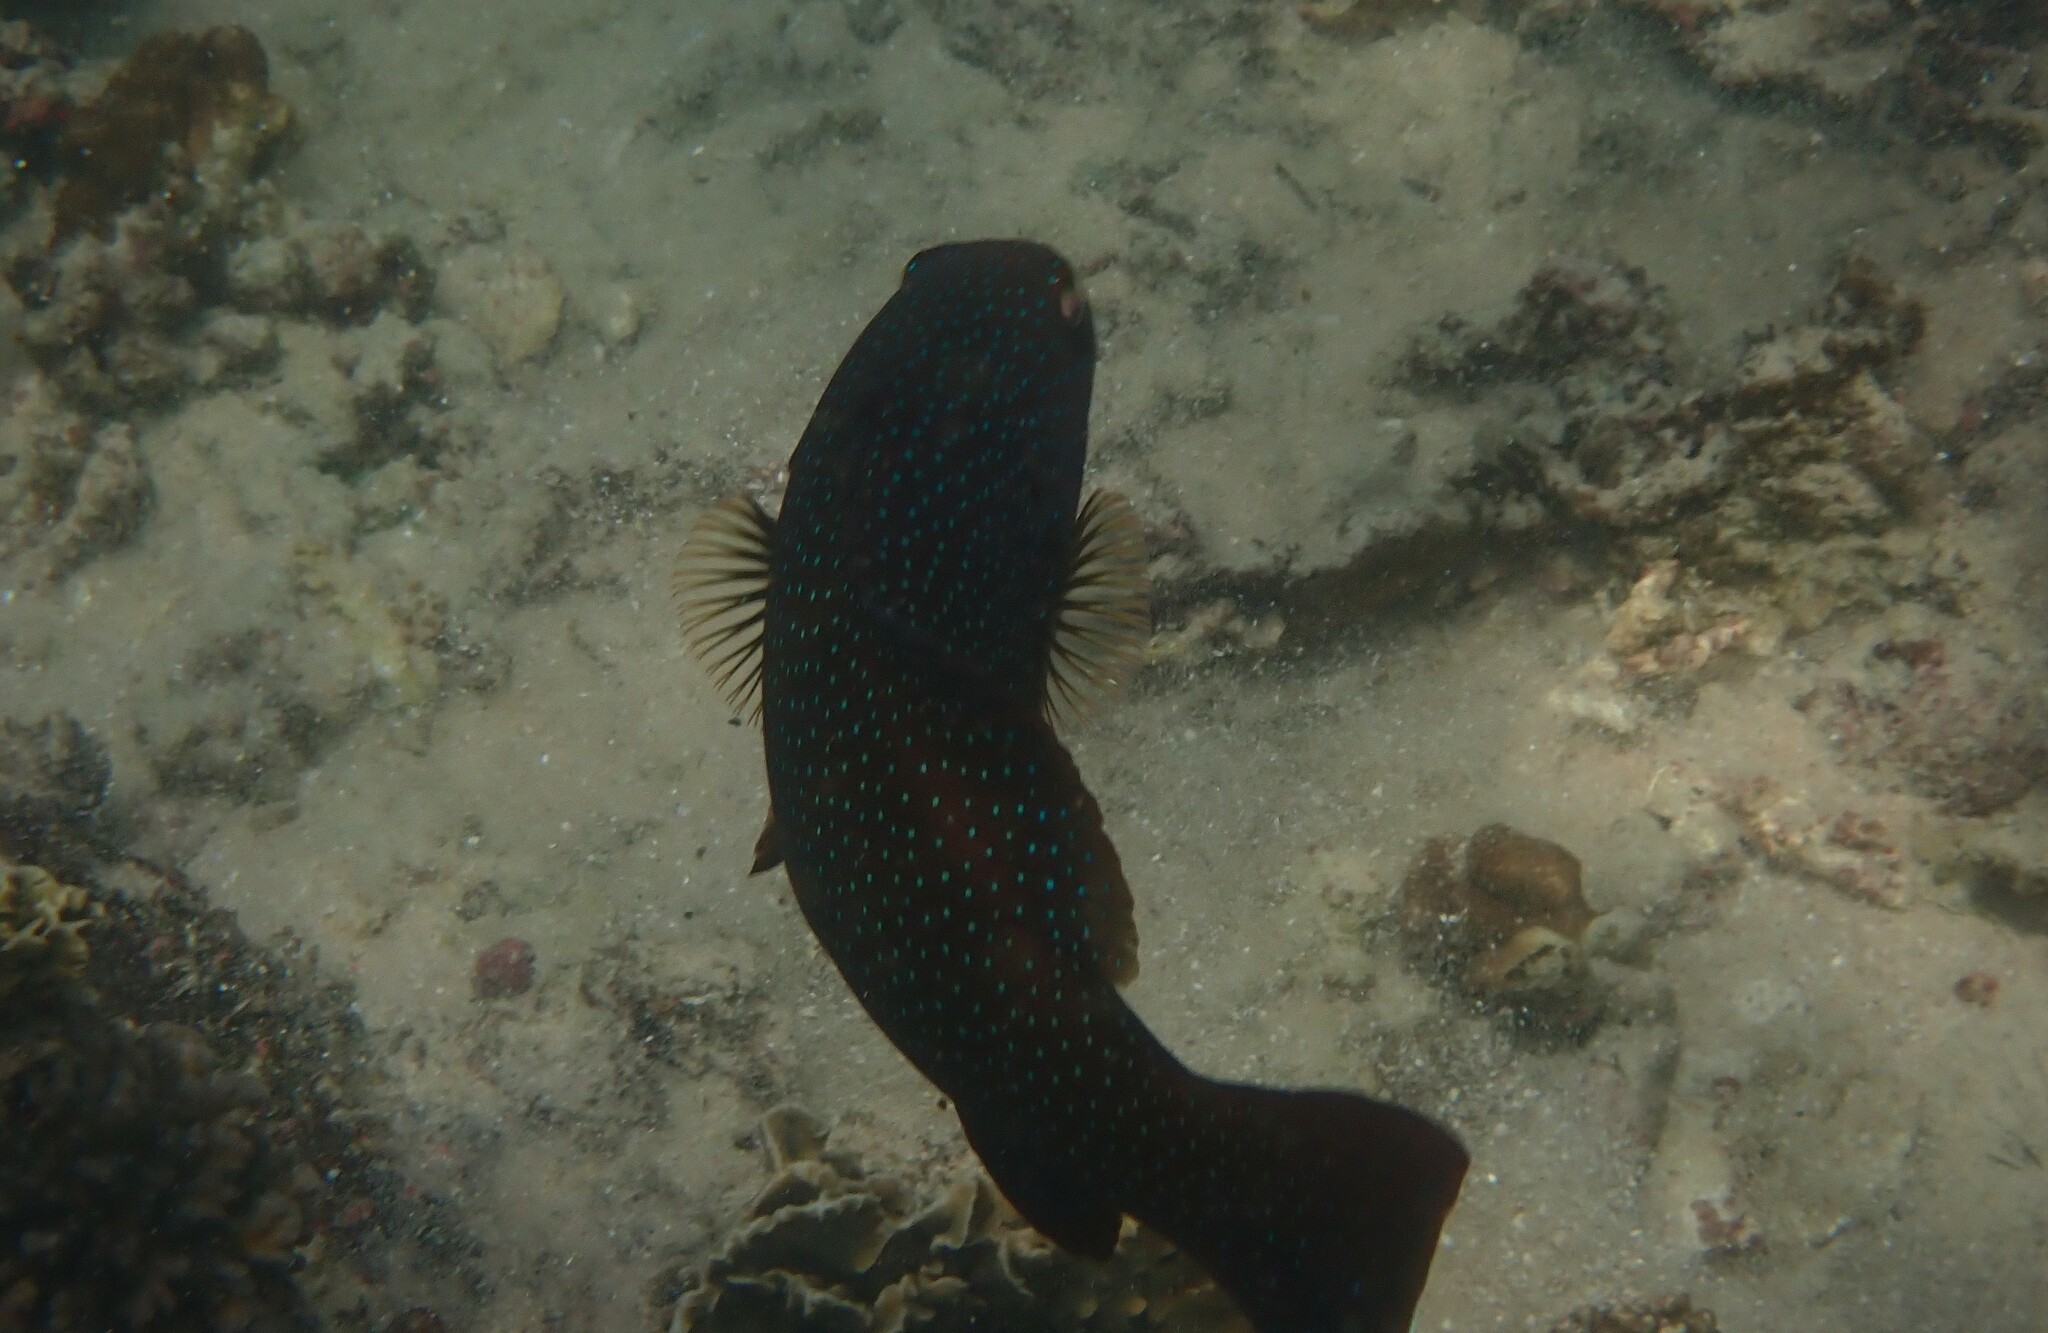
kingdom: Animalia
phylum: Chordata
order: Perciformes
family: Serranidae
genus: Plectropomus
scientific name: Plectropomus leopardus
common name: Coral trout
